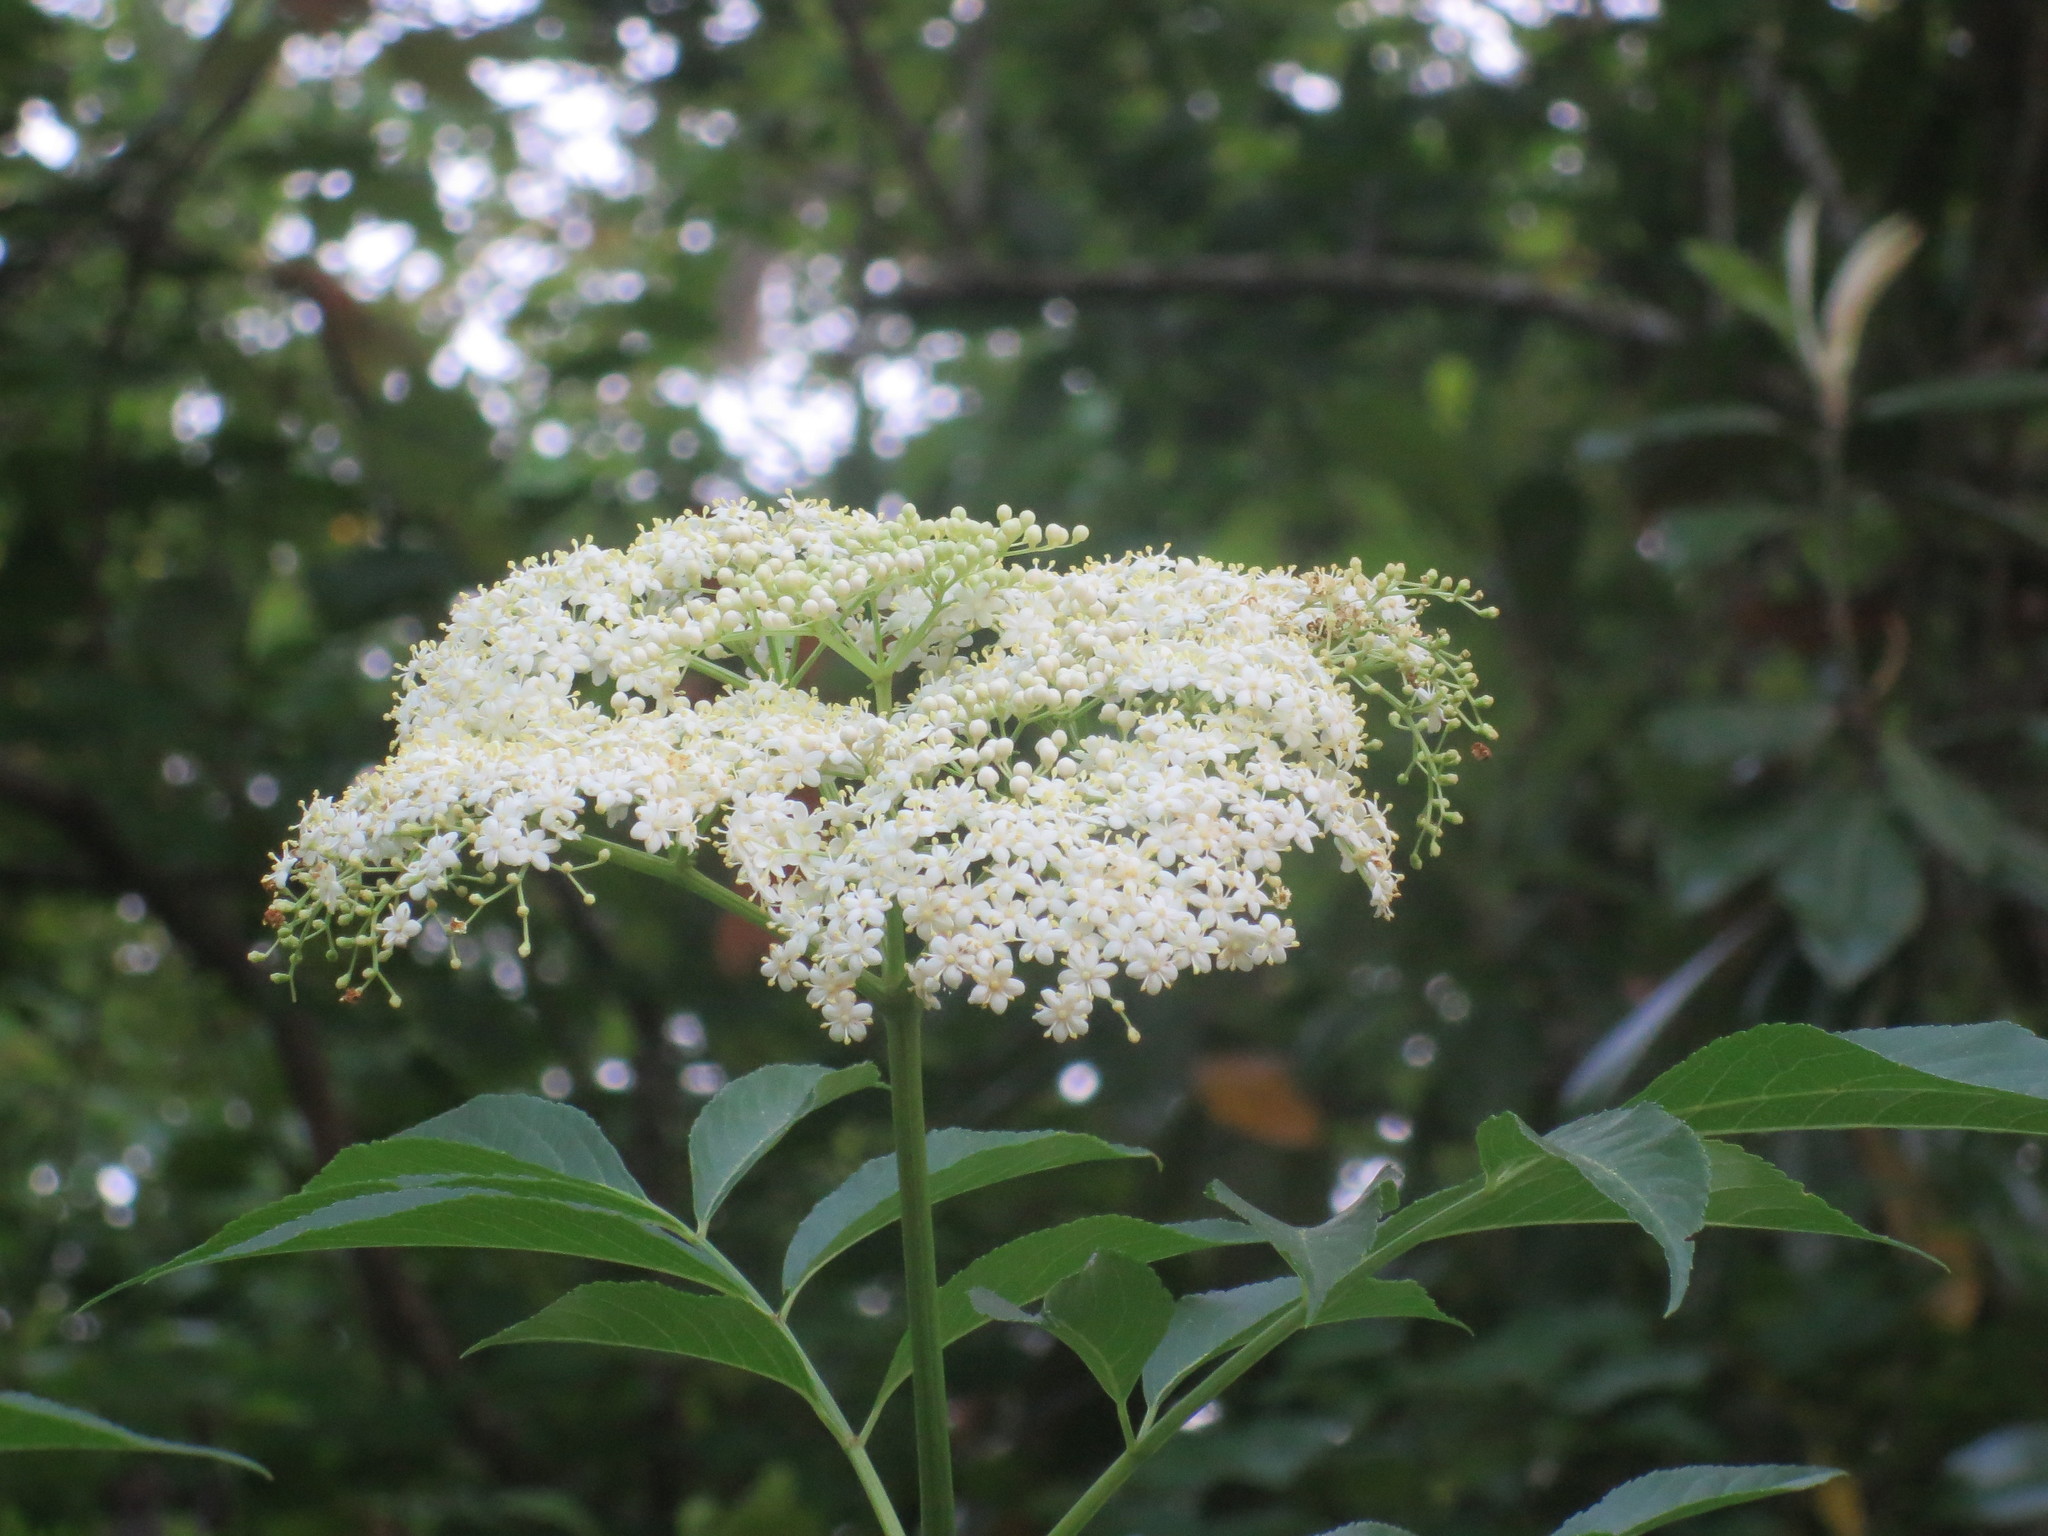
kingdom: Plantae
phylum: Tracheophyta
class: Magnoliopsida
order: Dipsacales
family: Viburnaceae
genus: Sambucus
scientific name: Sambucus canadensis
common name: American elder
